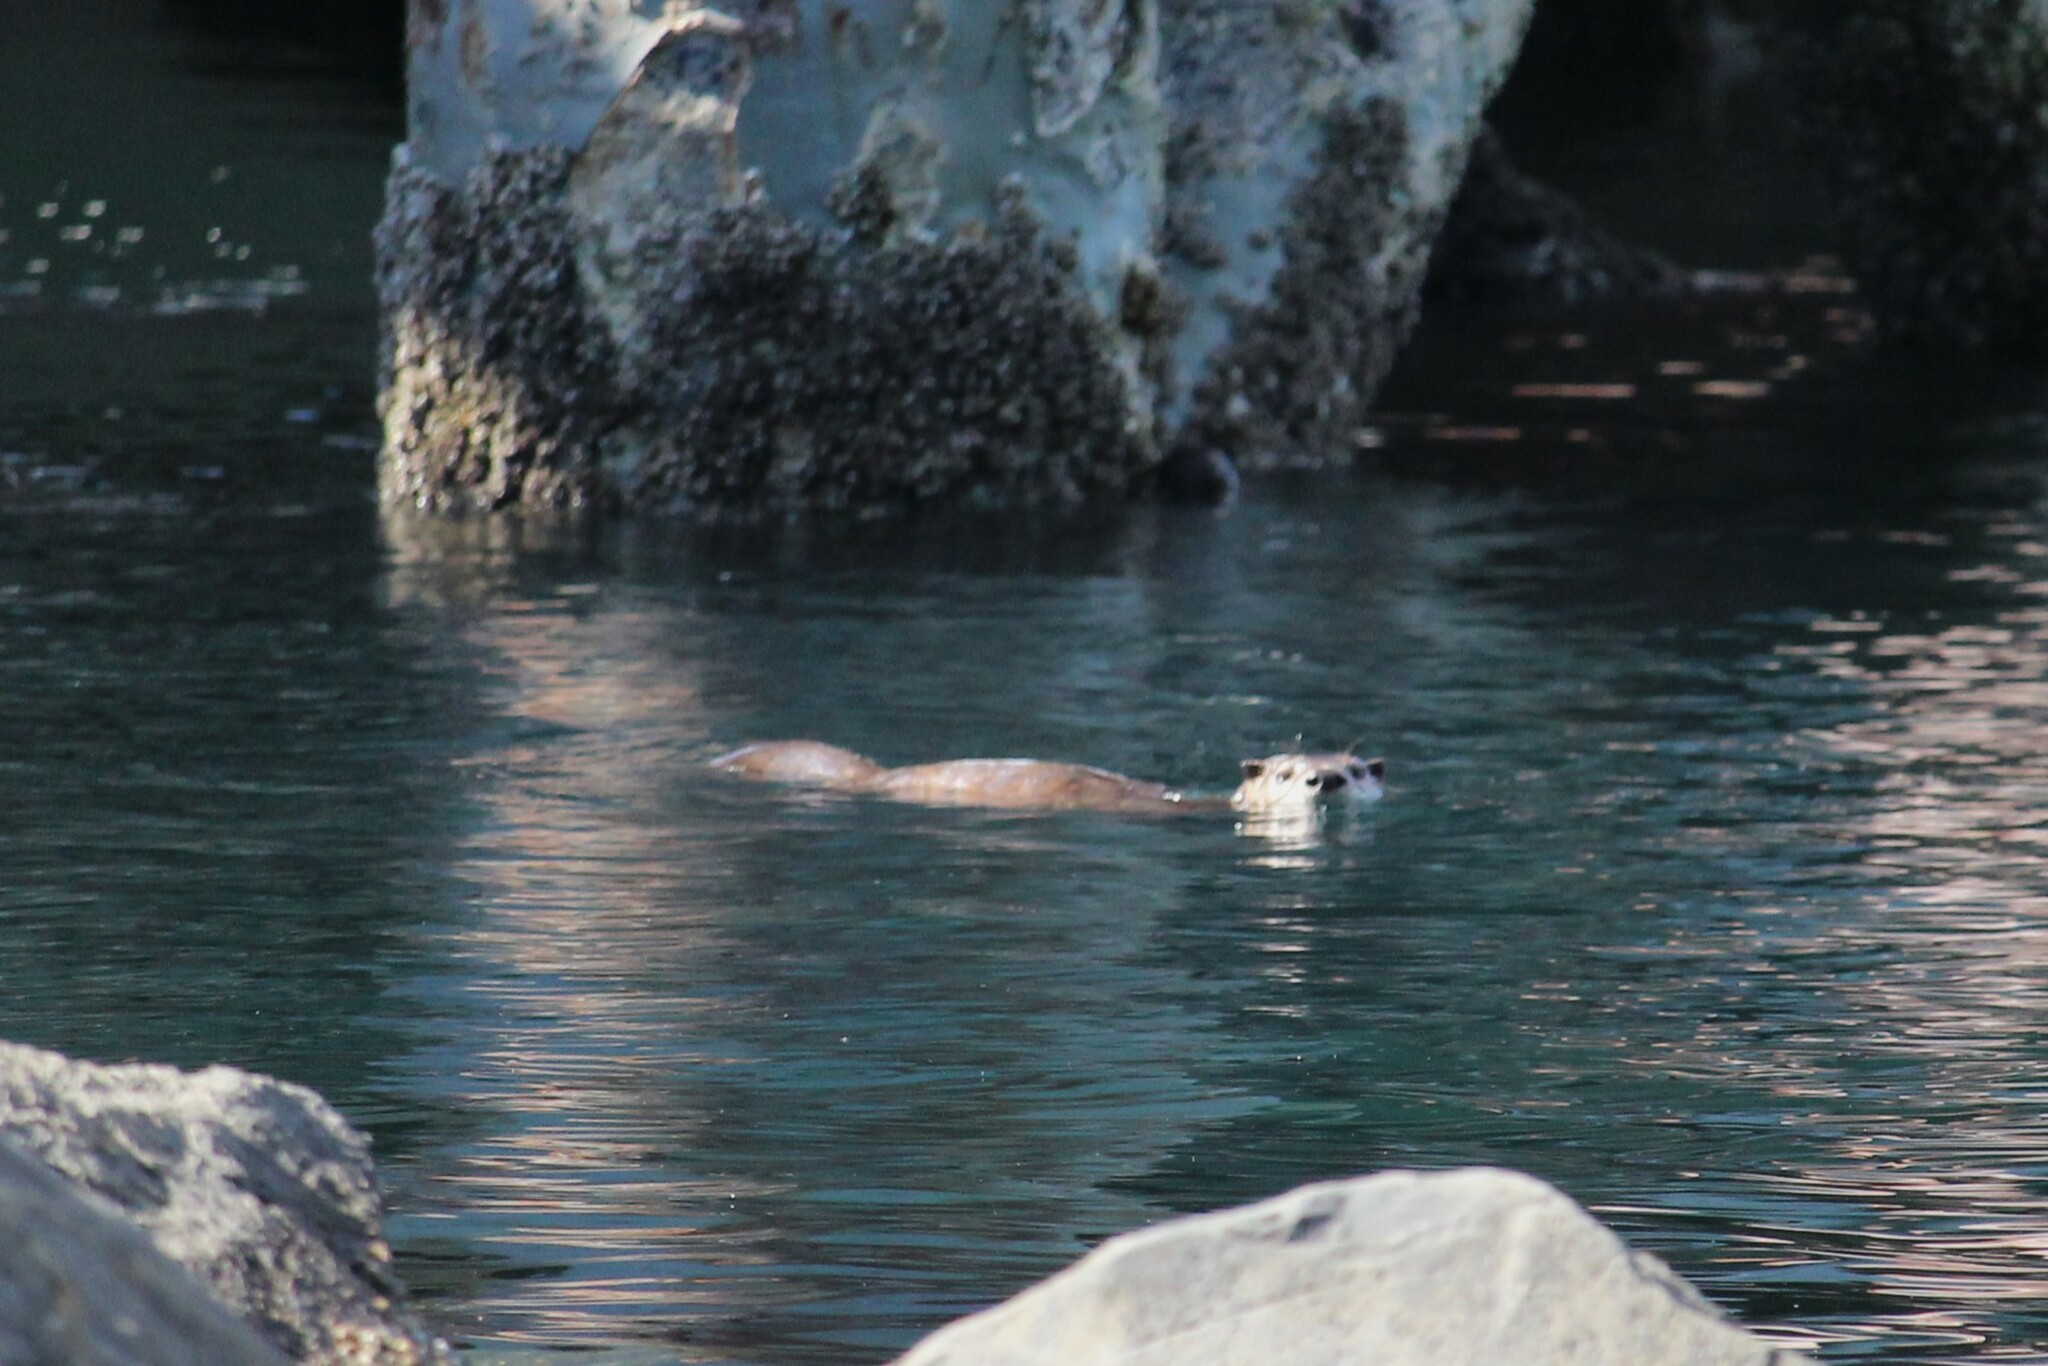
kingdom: Animalia
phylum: Chordata
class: Mammalia
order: Carnivora
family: Mustelidae
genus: Lontra
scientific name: Lontra canadensis
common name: North american river otter
